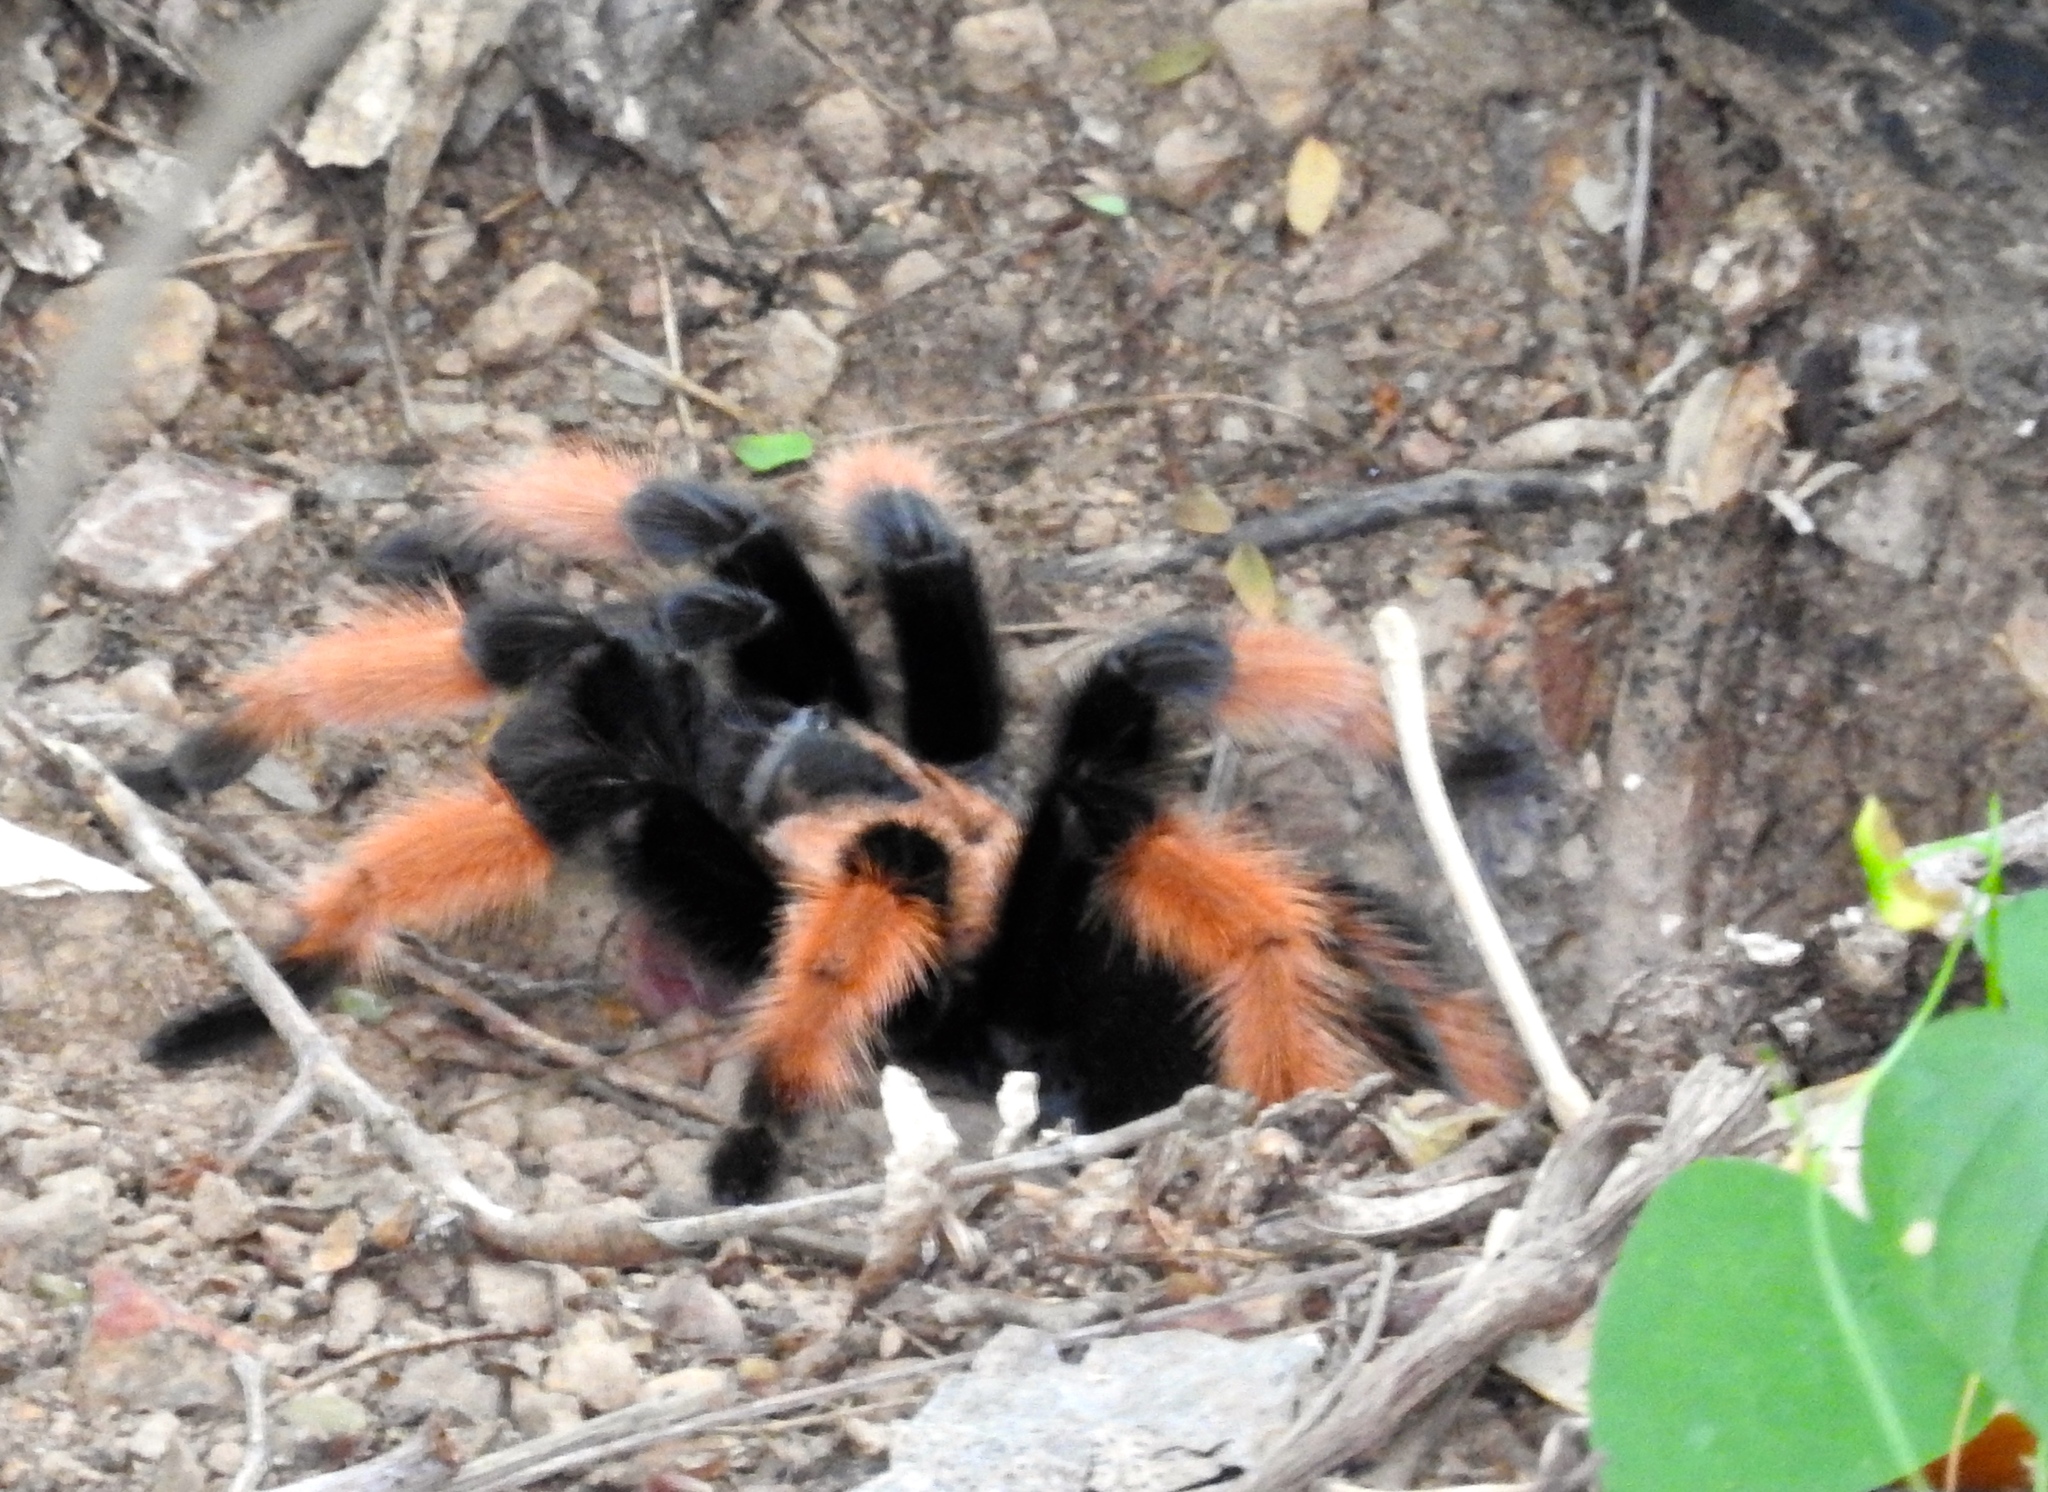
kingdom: Animalia
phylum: Arthropoda
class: Arachnida
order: Araneae
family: Theraphosidae
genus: Brachypelma
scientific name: Brachypelma emilia
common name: Mexican redleg
